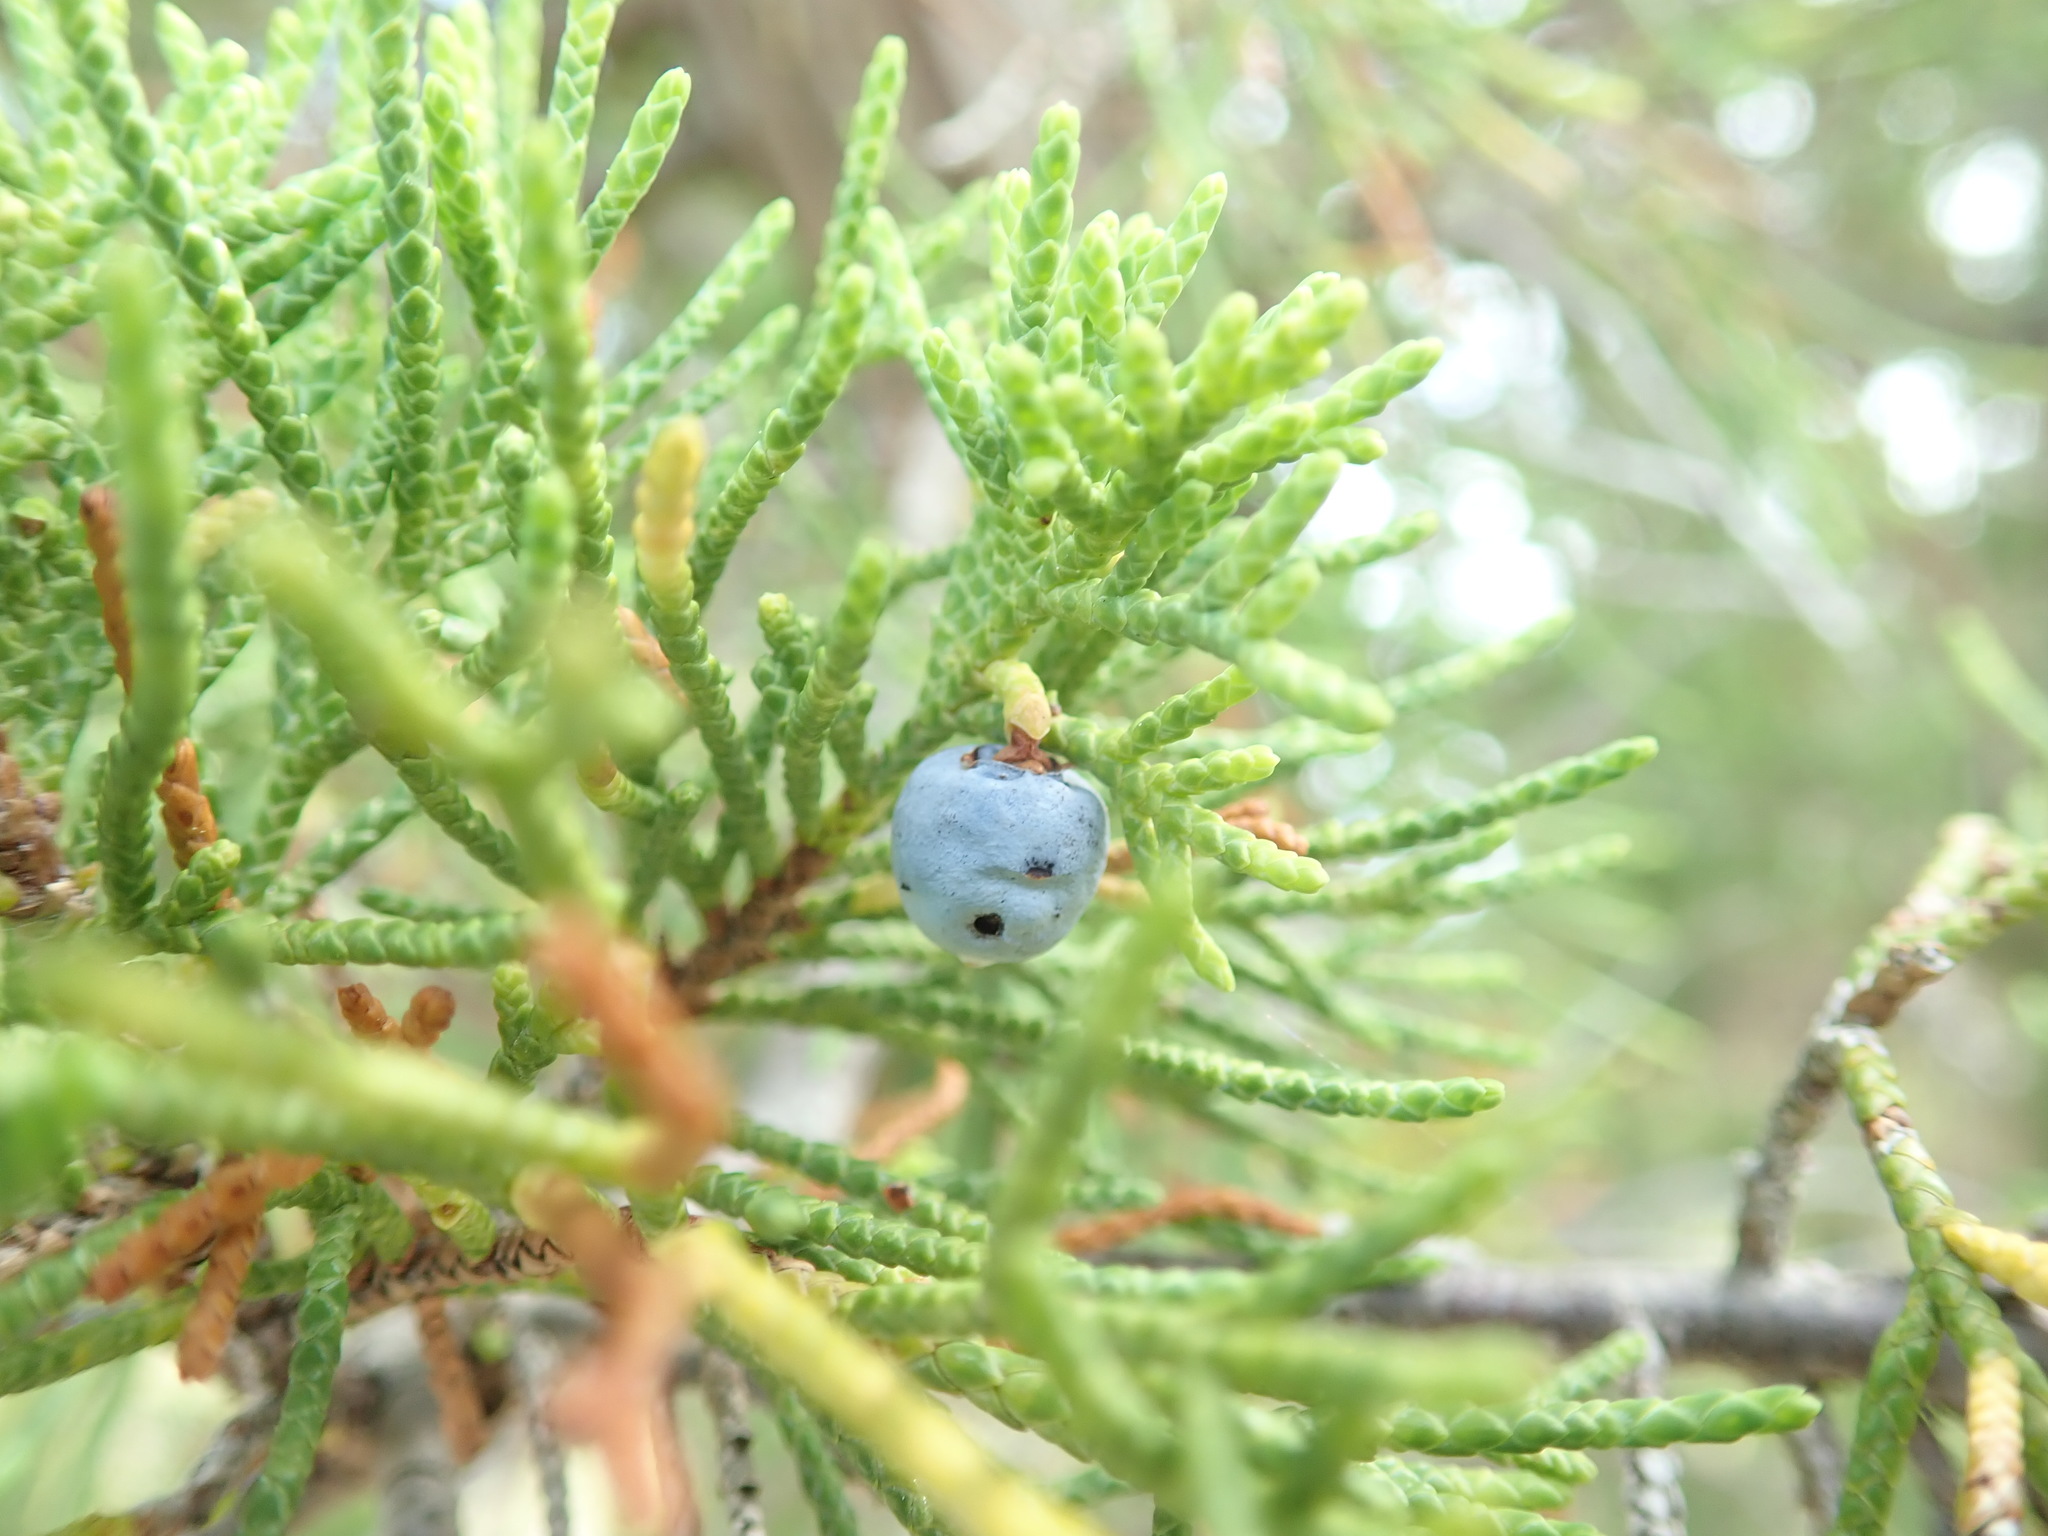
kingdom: Plantae
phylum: Tracheophyta
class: Pinopsida
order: Pinales
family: Cupressaceae
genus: Juniperus
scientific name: Juniperus scopulorum
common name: Rocky mountain juniper
